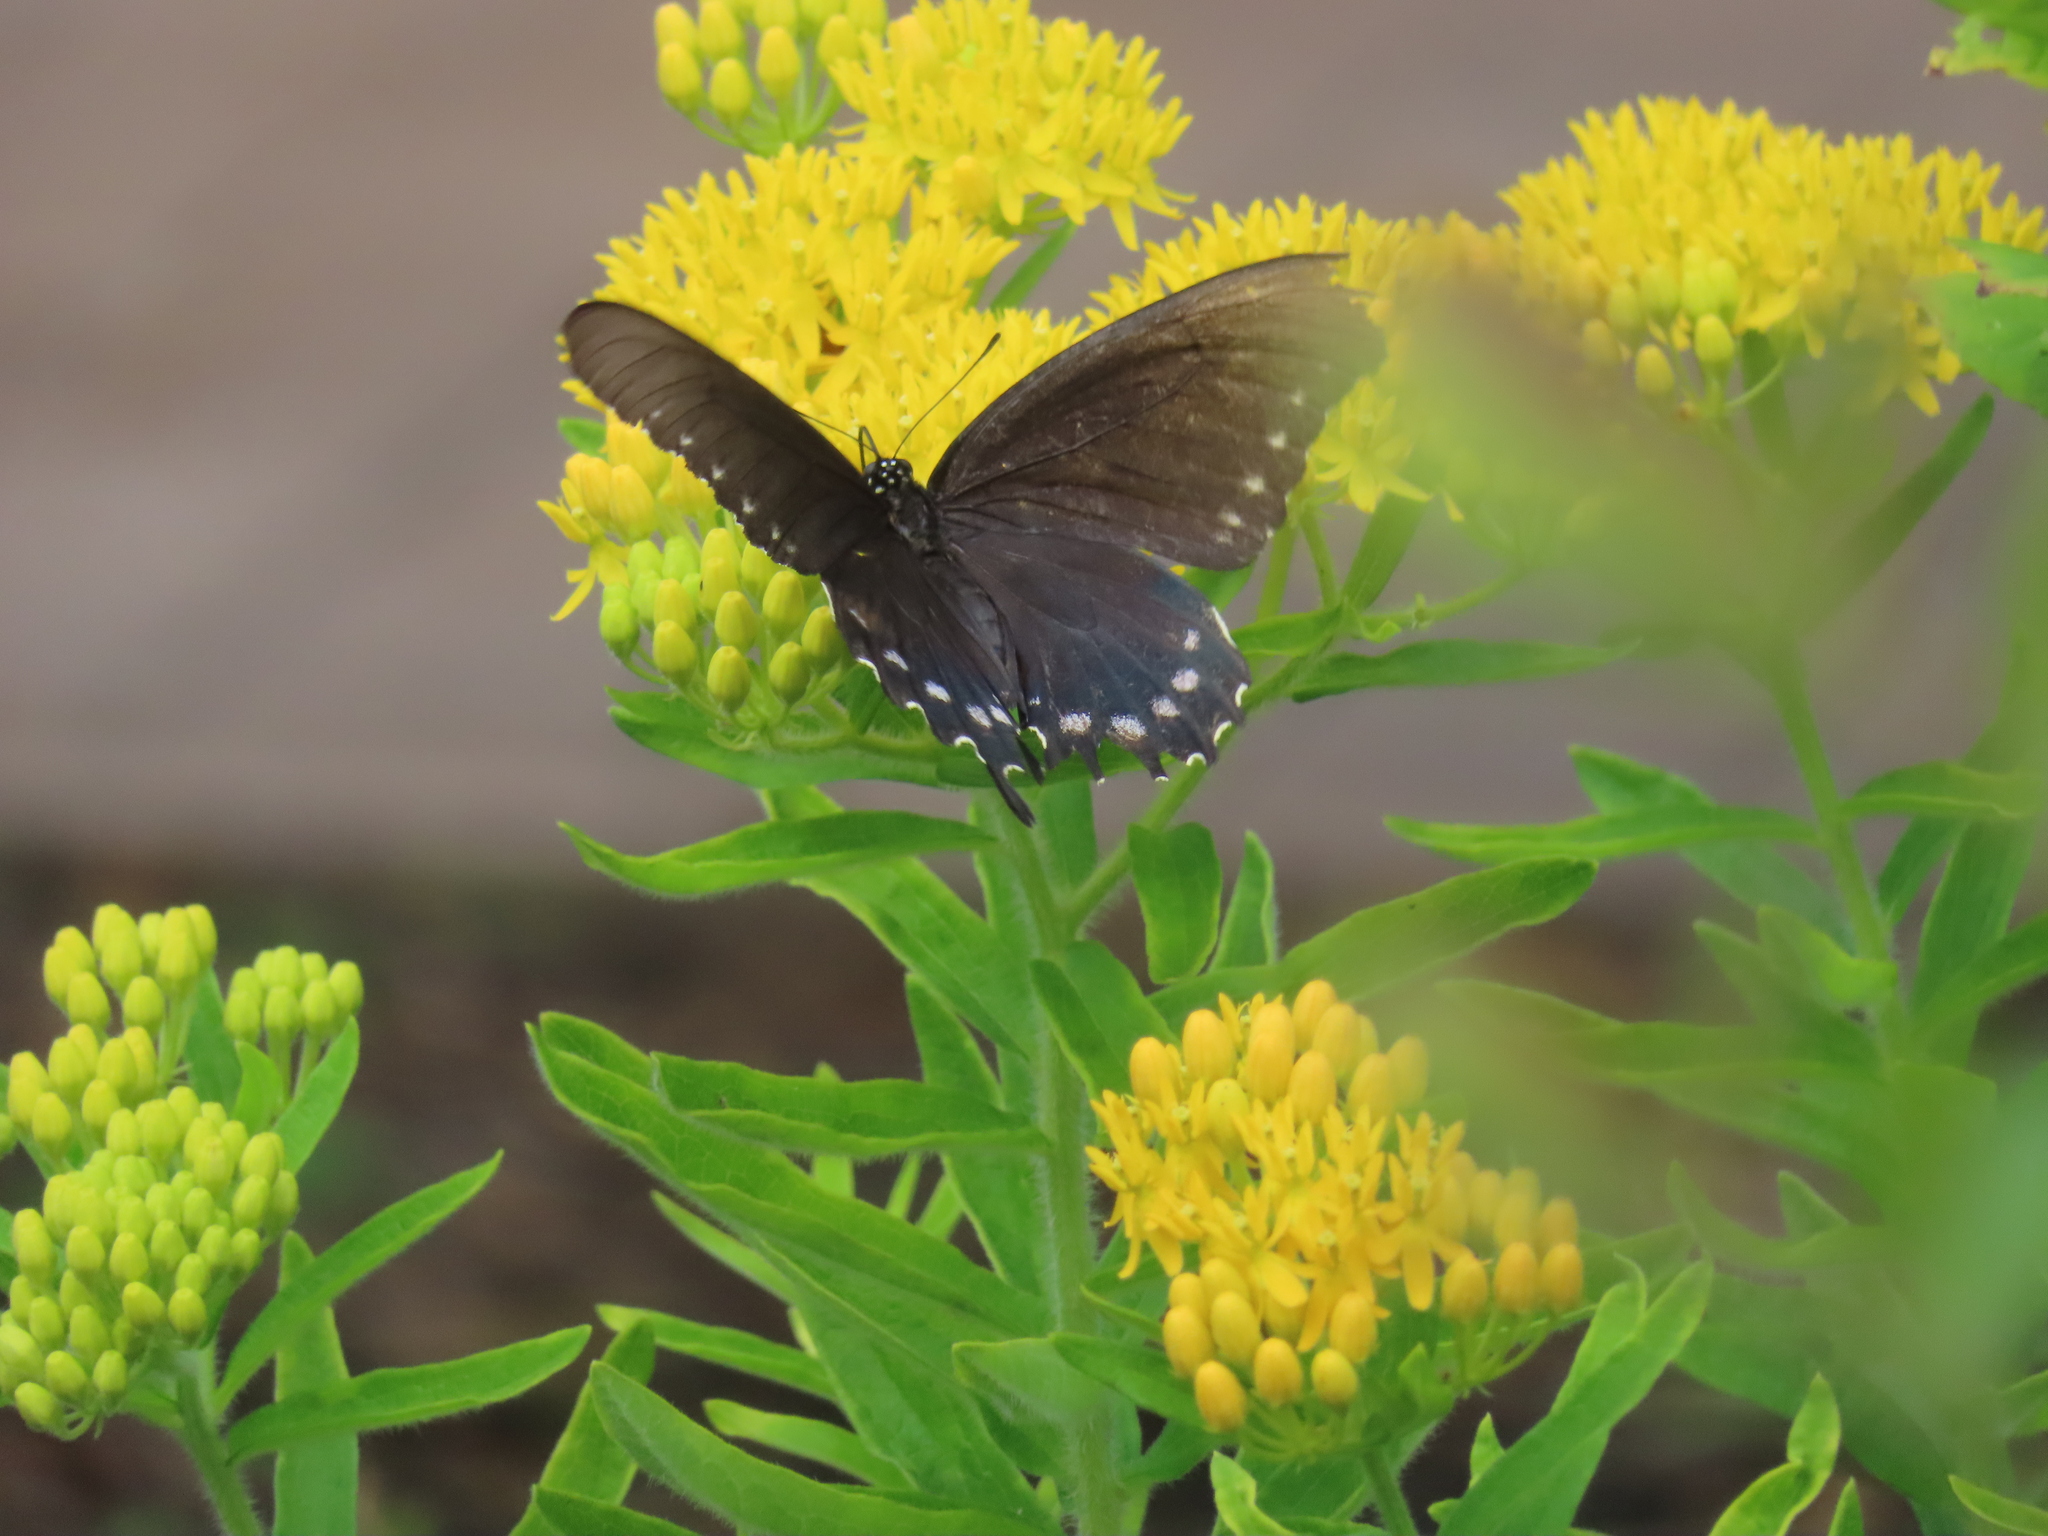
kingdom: Animalia
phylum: Arthropoda
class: Insecta
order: Lepidoptera
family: Papilionidae
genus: Battus
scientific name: Battus philenor
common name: Pipevine swallowtail
